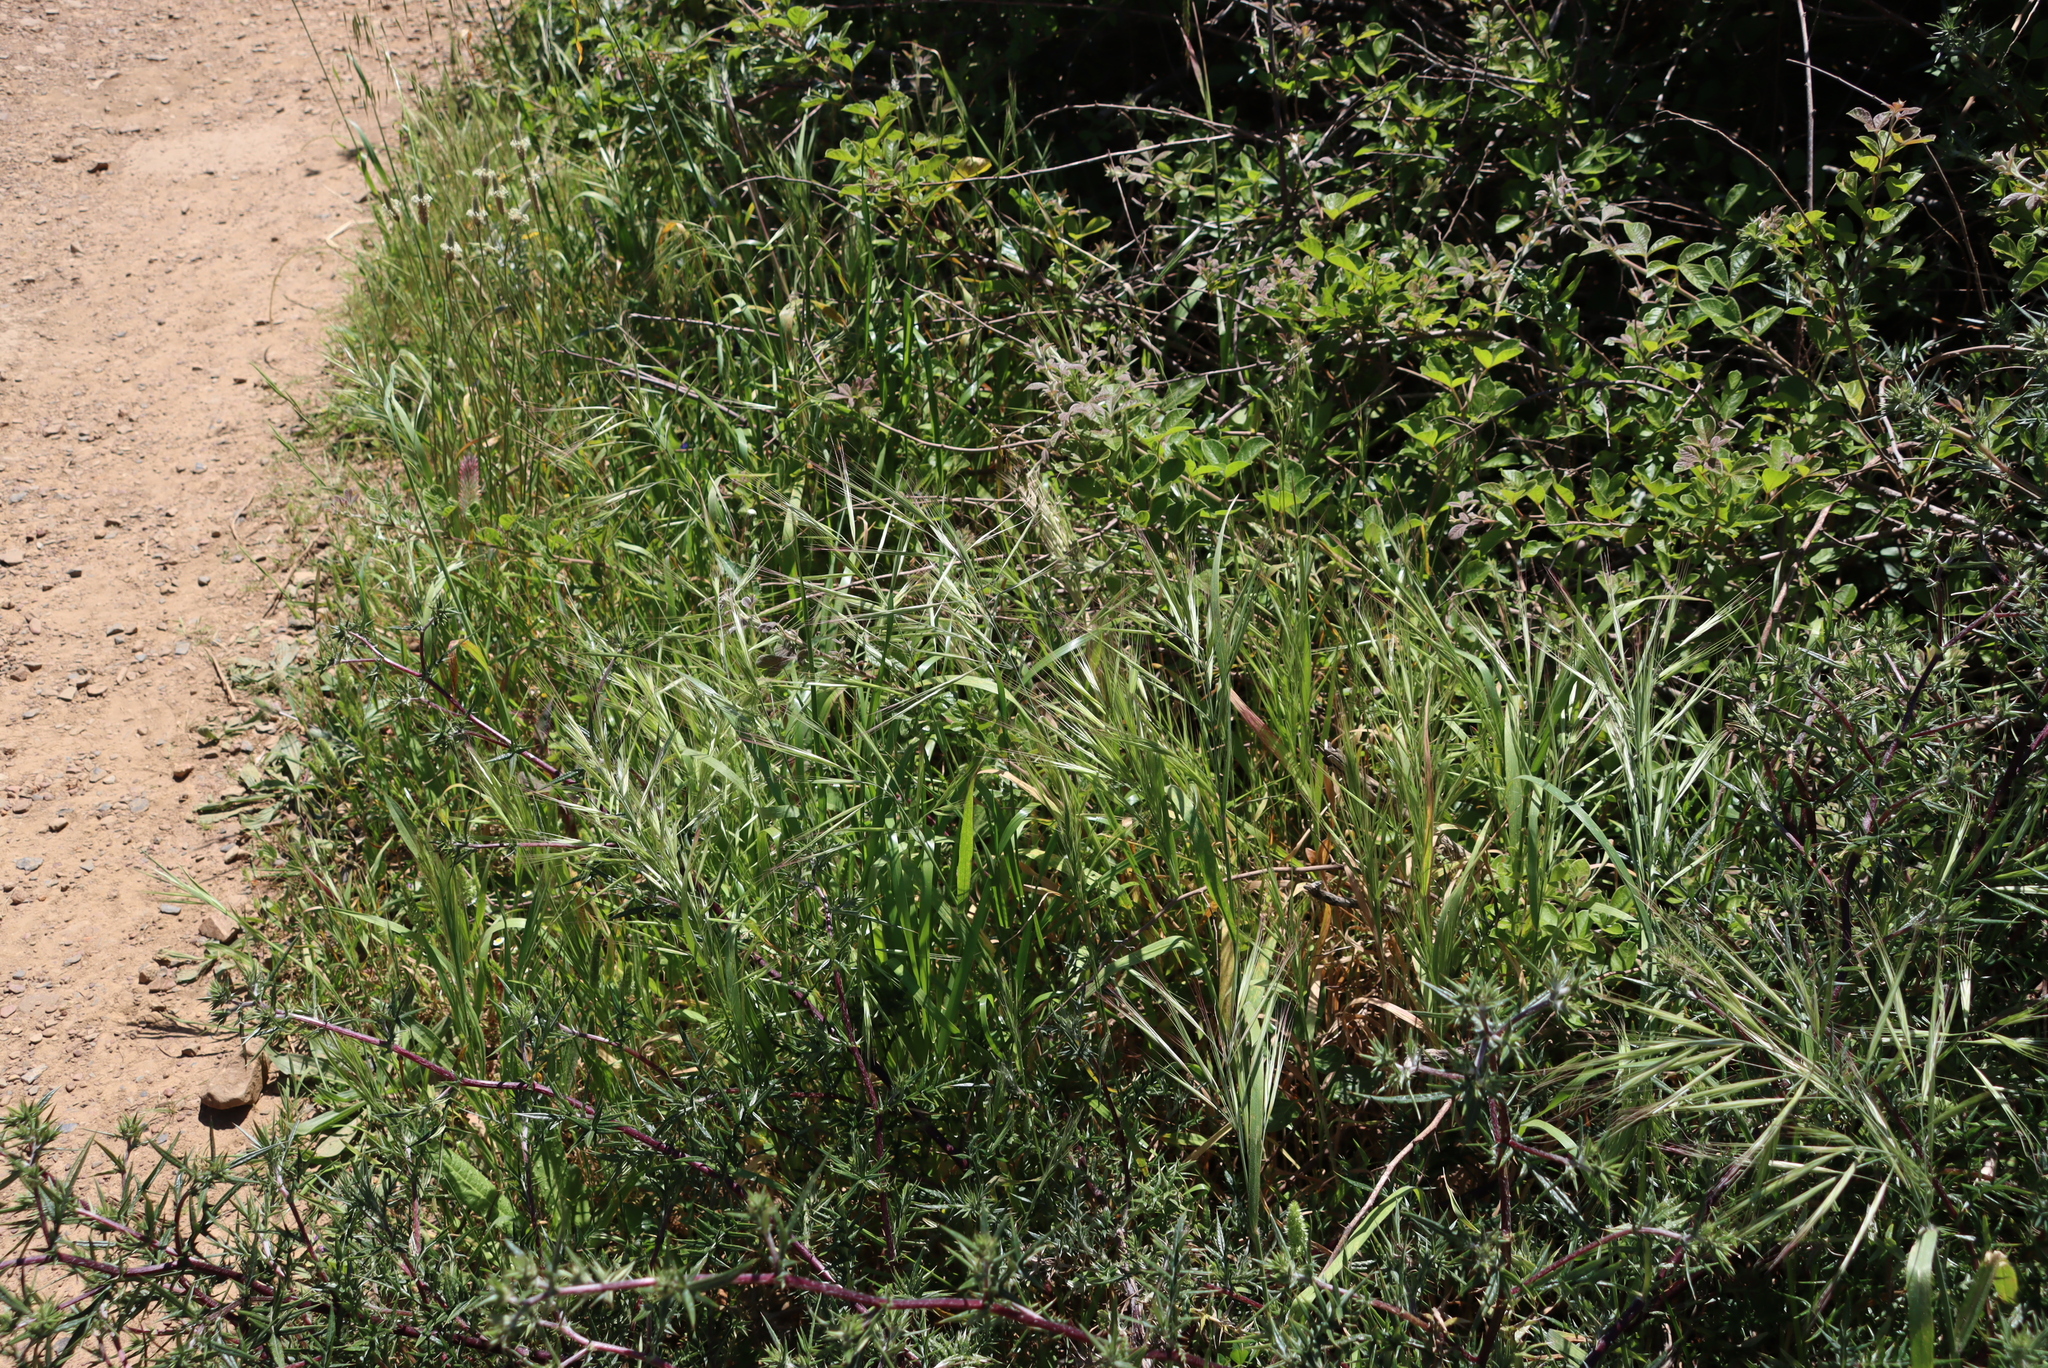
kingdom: Plantae
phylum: Tracheophyta
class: Liliopsida
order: Poales
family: Poaceae
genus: Bromus
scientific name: Bromus diandrus
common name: Ripgut brome
